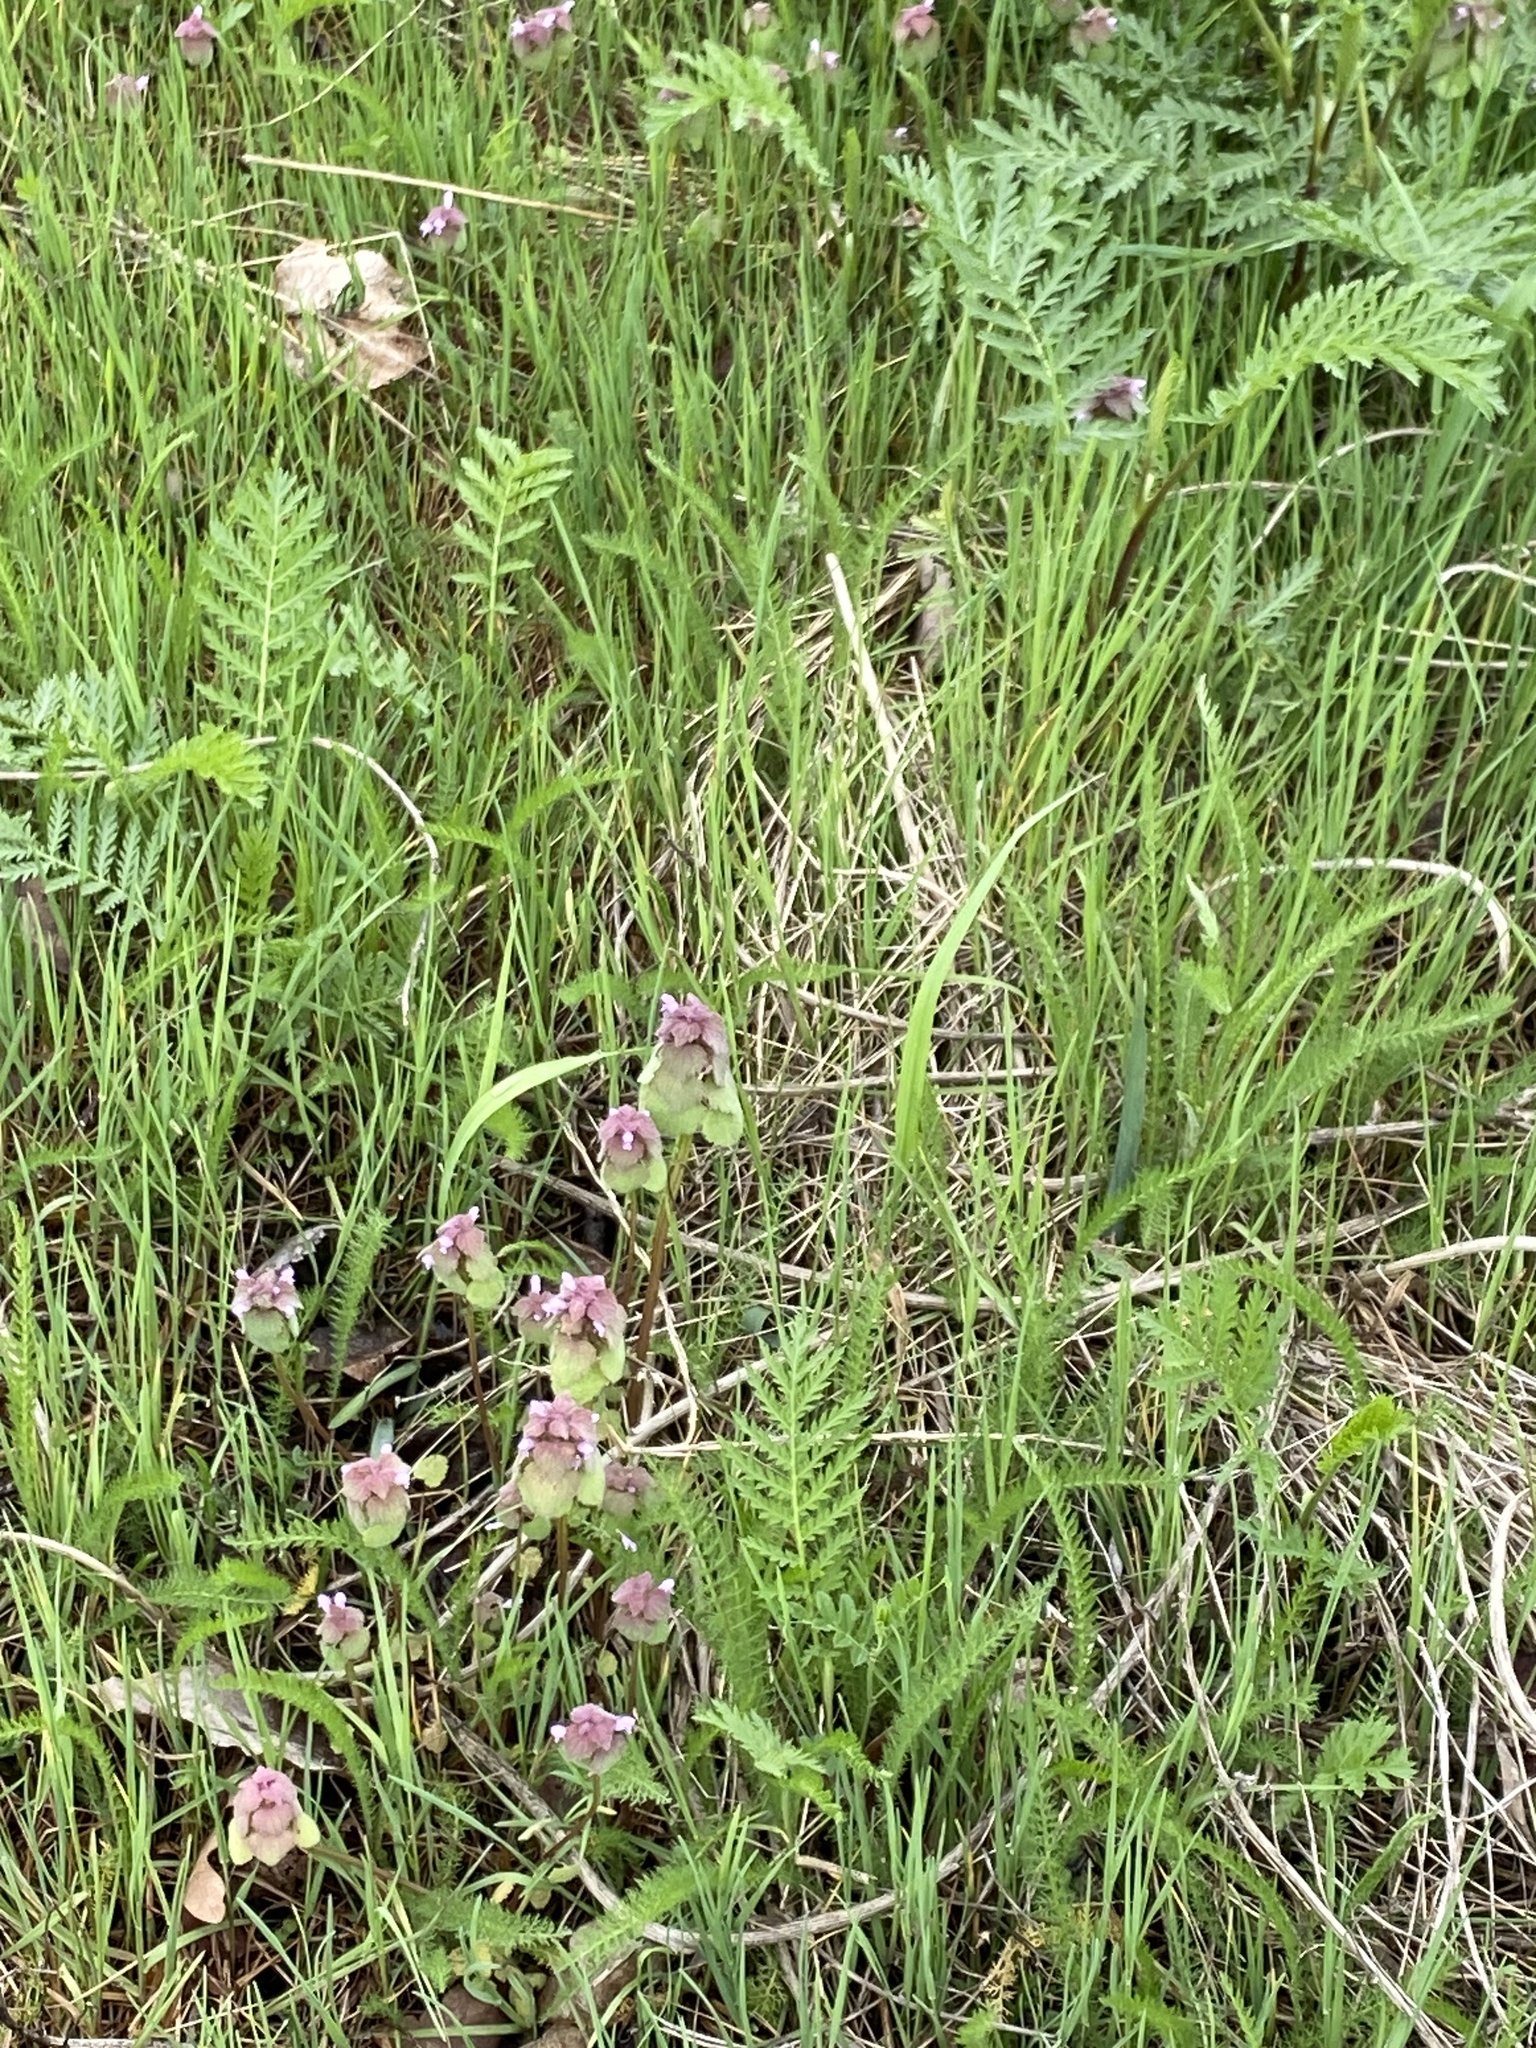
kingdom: Plantae
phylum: Tracheophyta
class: Magnoliopsida
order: Lamiales
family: Lamiaceae
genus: Lamium
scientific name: Lamium purpureum
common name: Red dead-nettle
